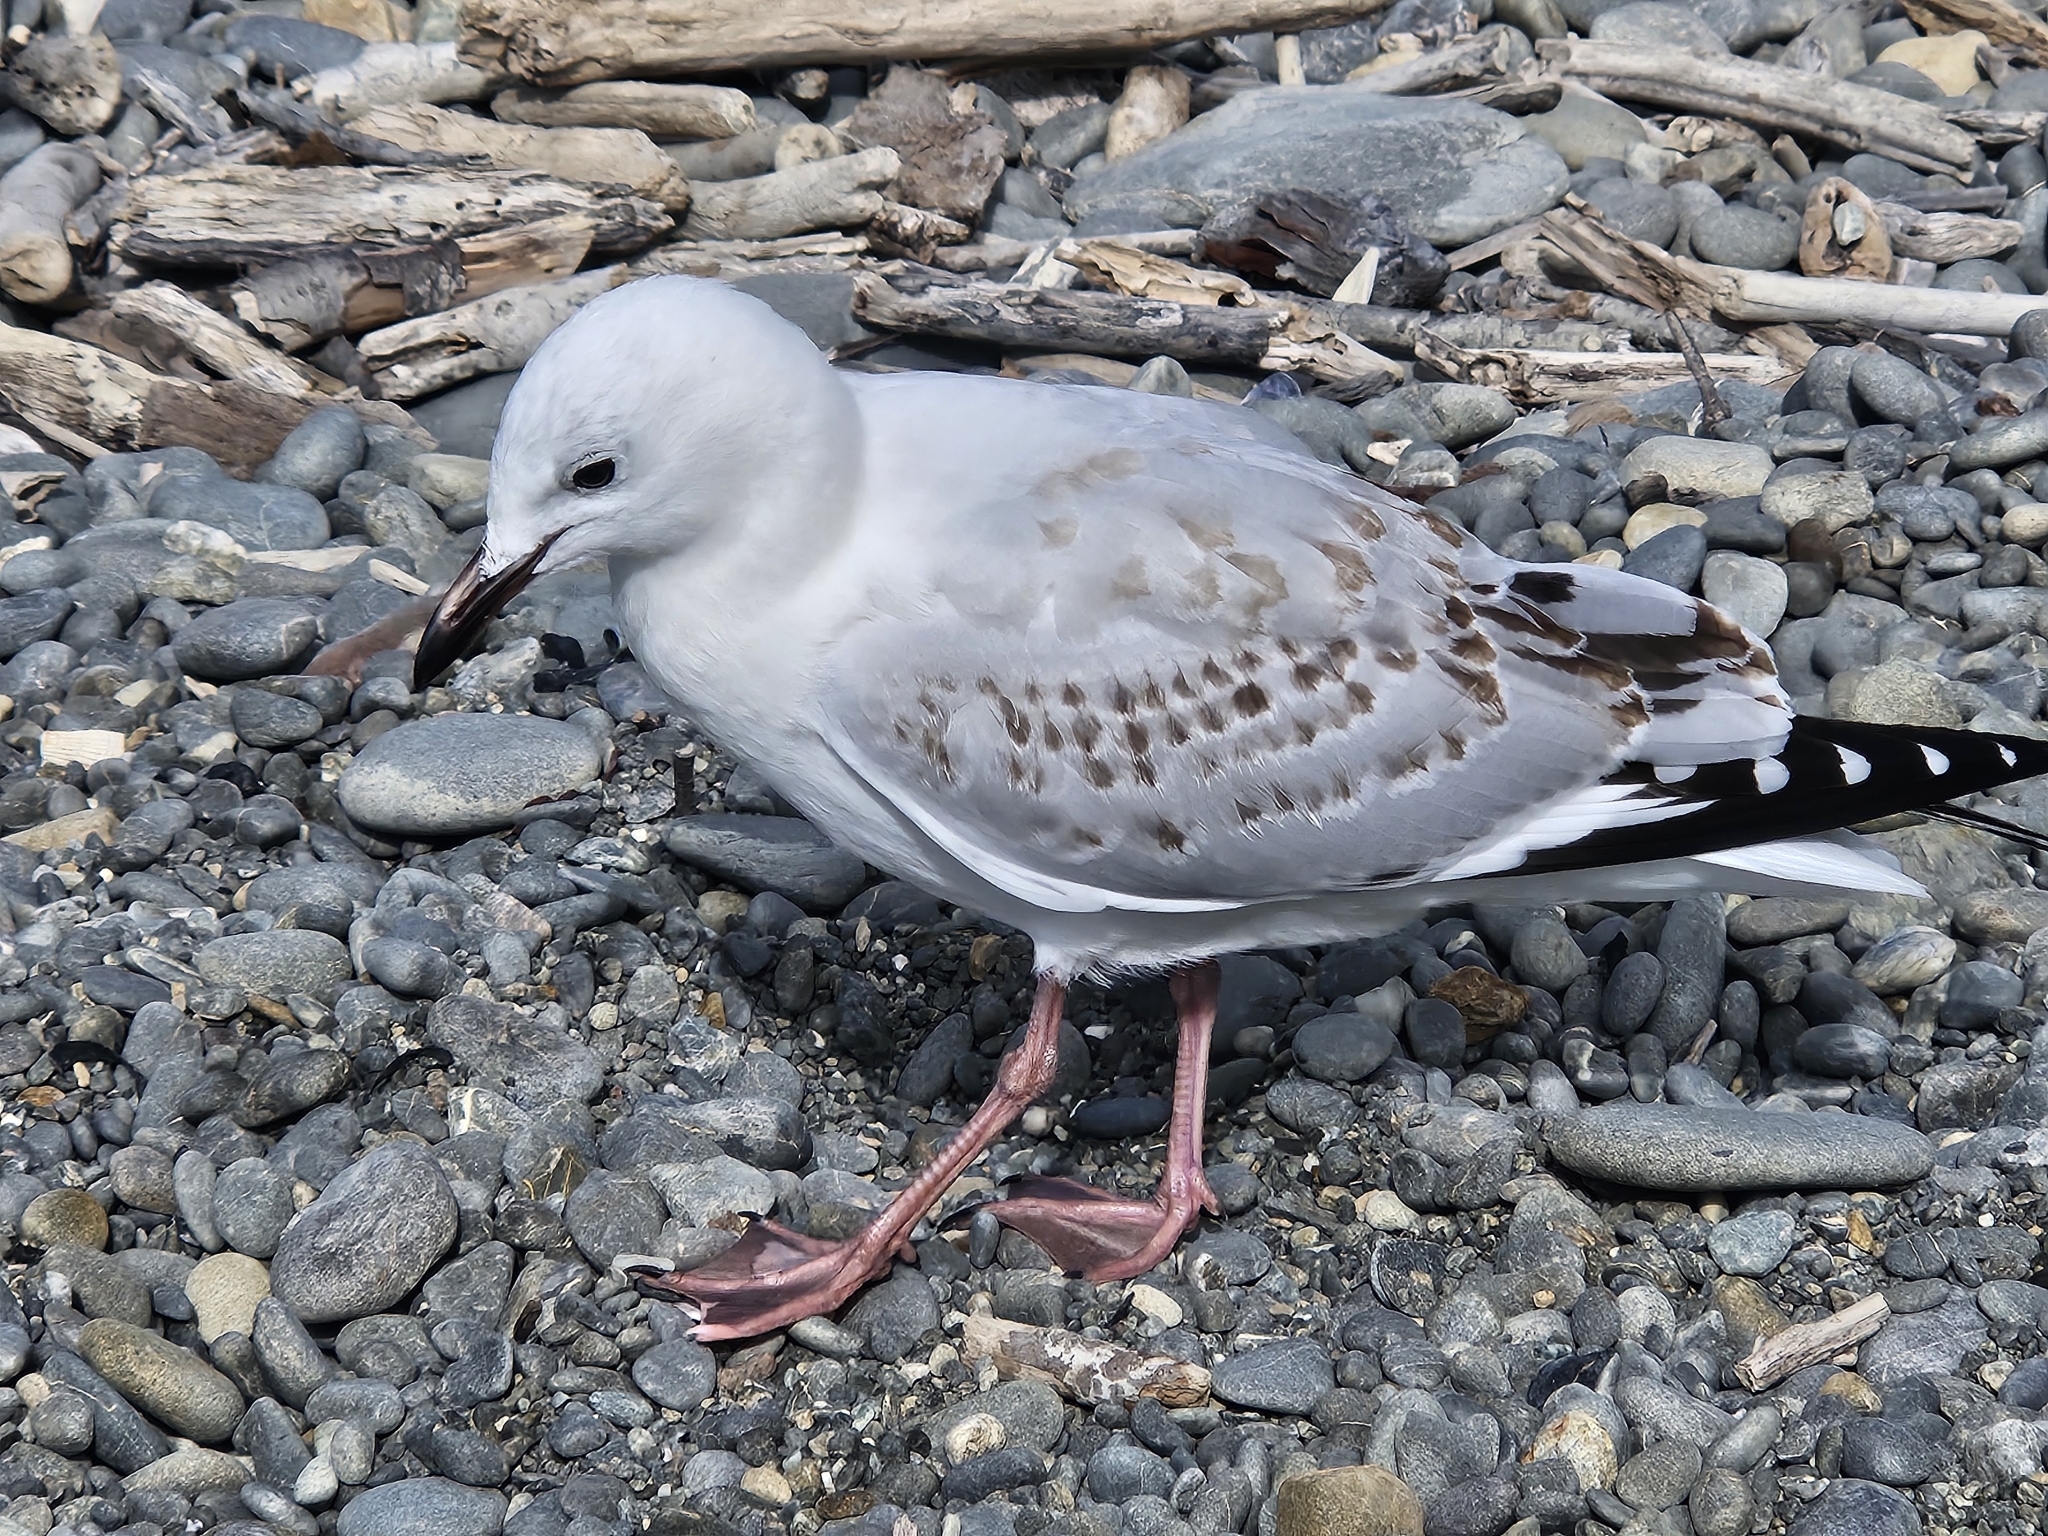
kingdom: Animalia
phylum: Chordata
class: Aves
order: Charadriiformes
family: Laridae
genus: Chroicocephalus
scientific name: Chroicocephalus novaehollandiae
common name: Silver gull
